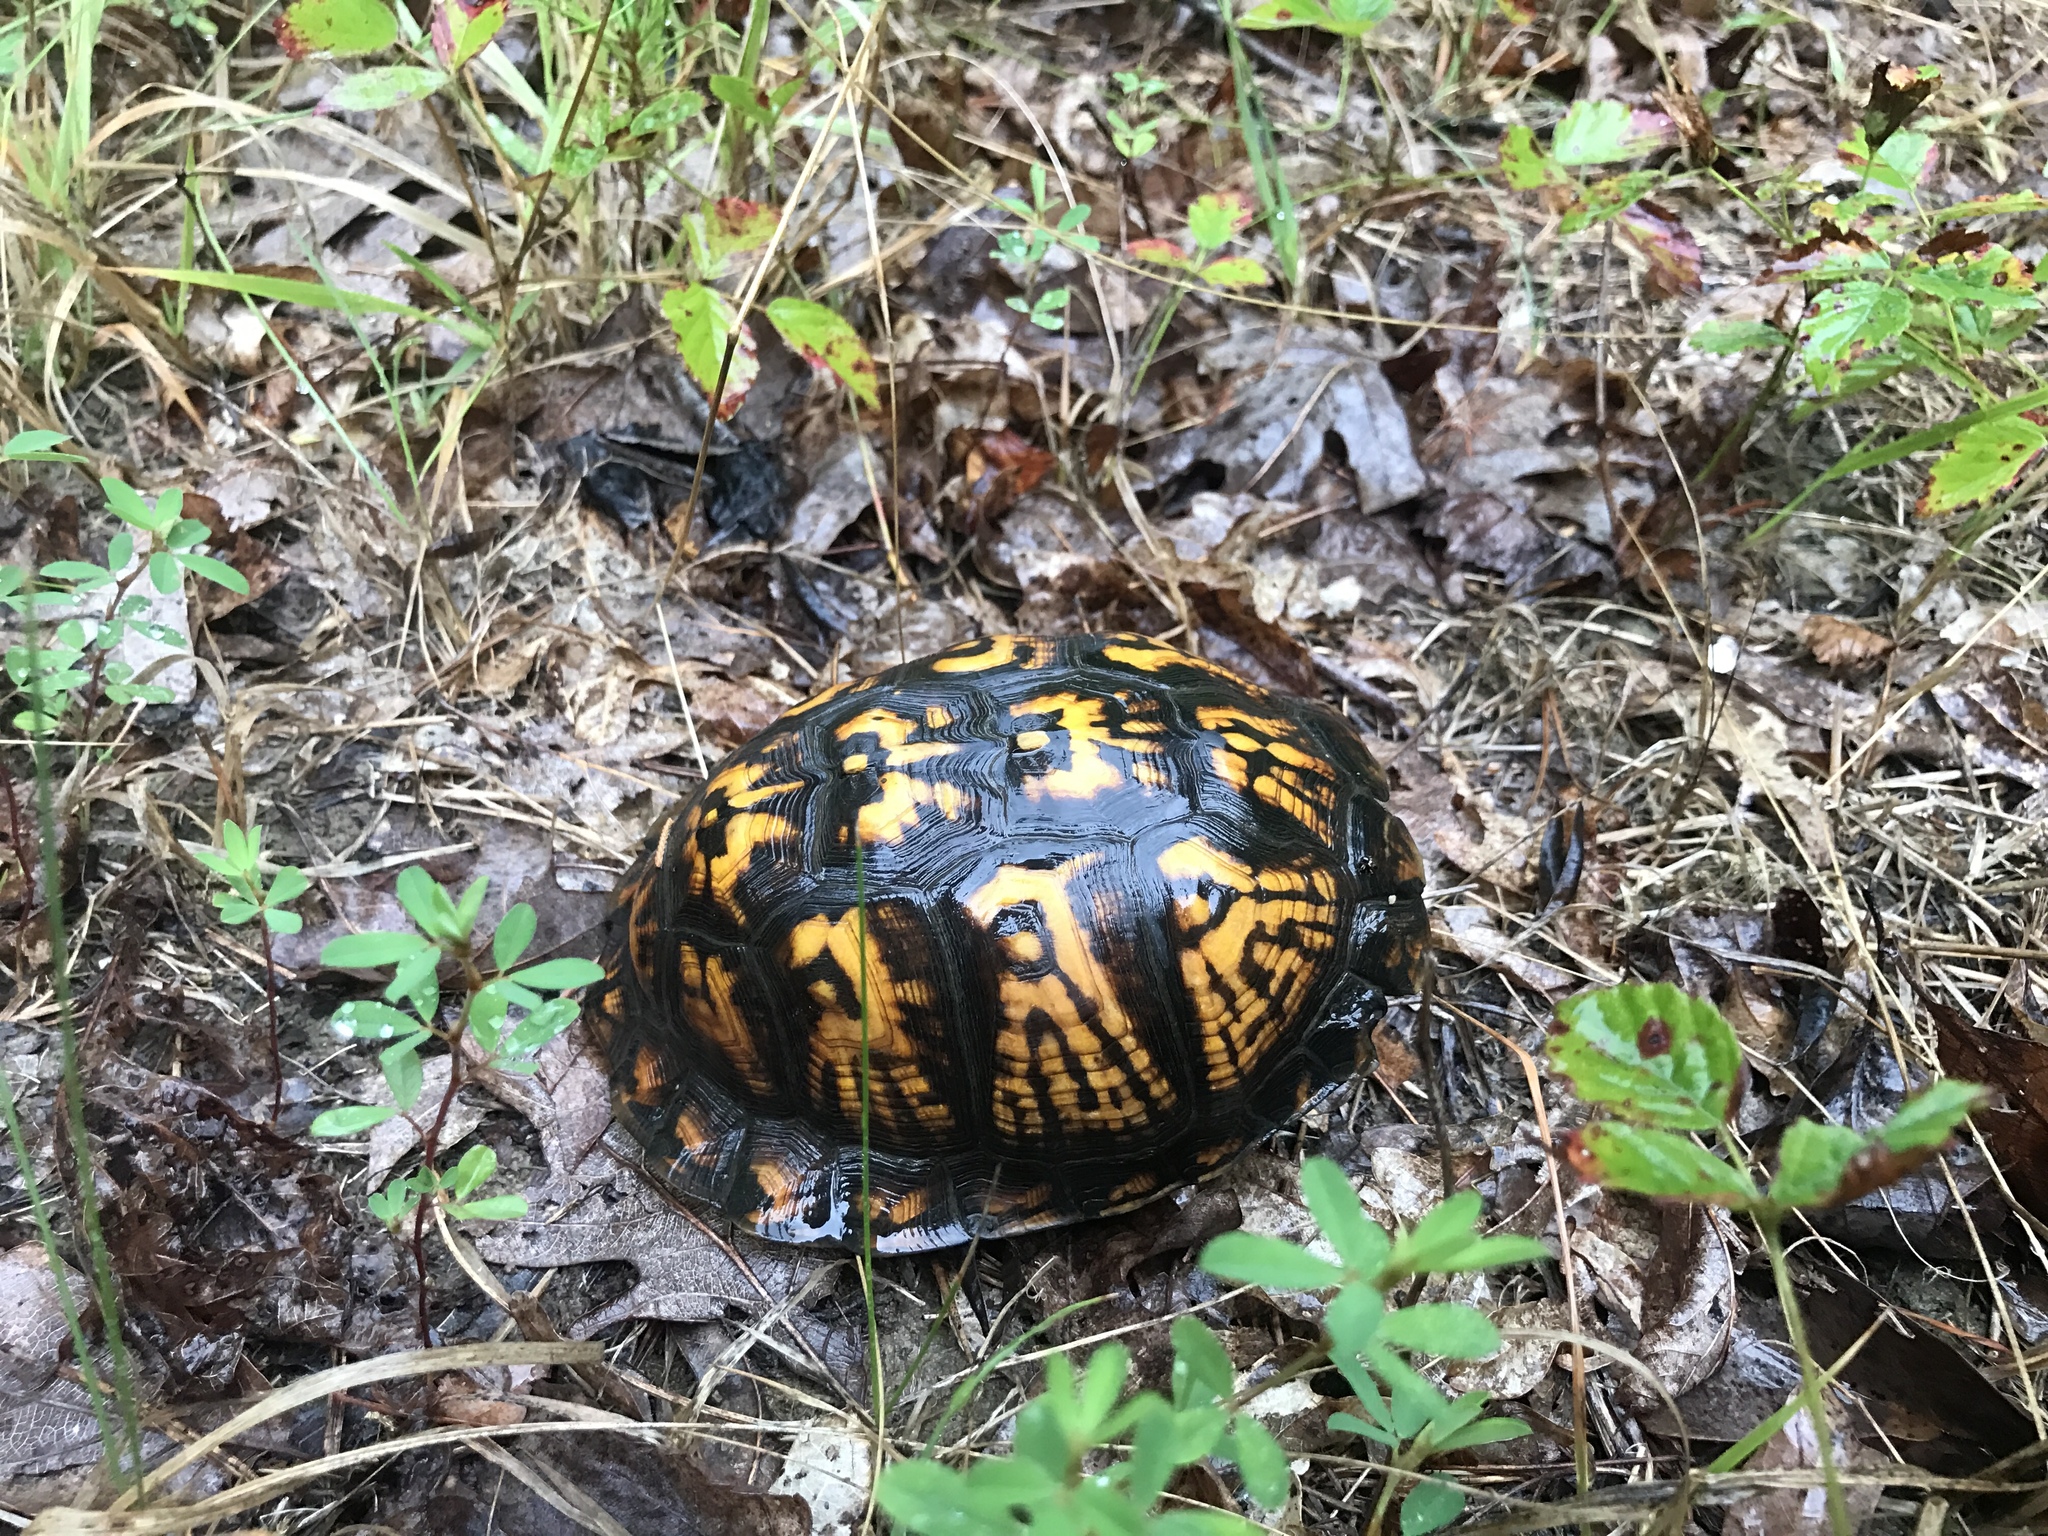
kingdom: Animalia
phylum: Chordata
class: Testudines
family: Emydidae
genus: Terrapene
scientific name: Terrapene carolina
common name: Common box turtle
